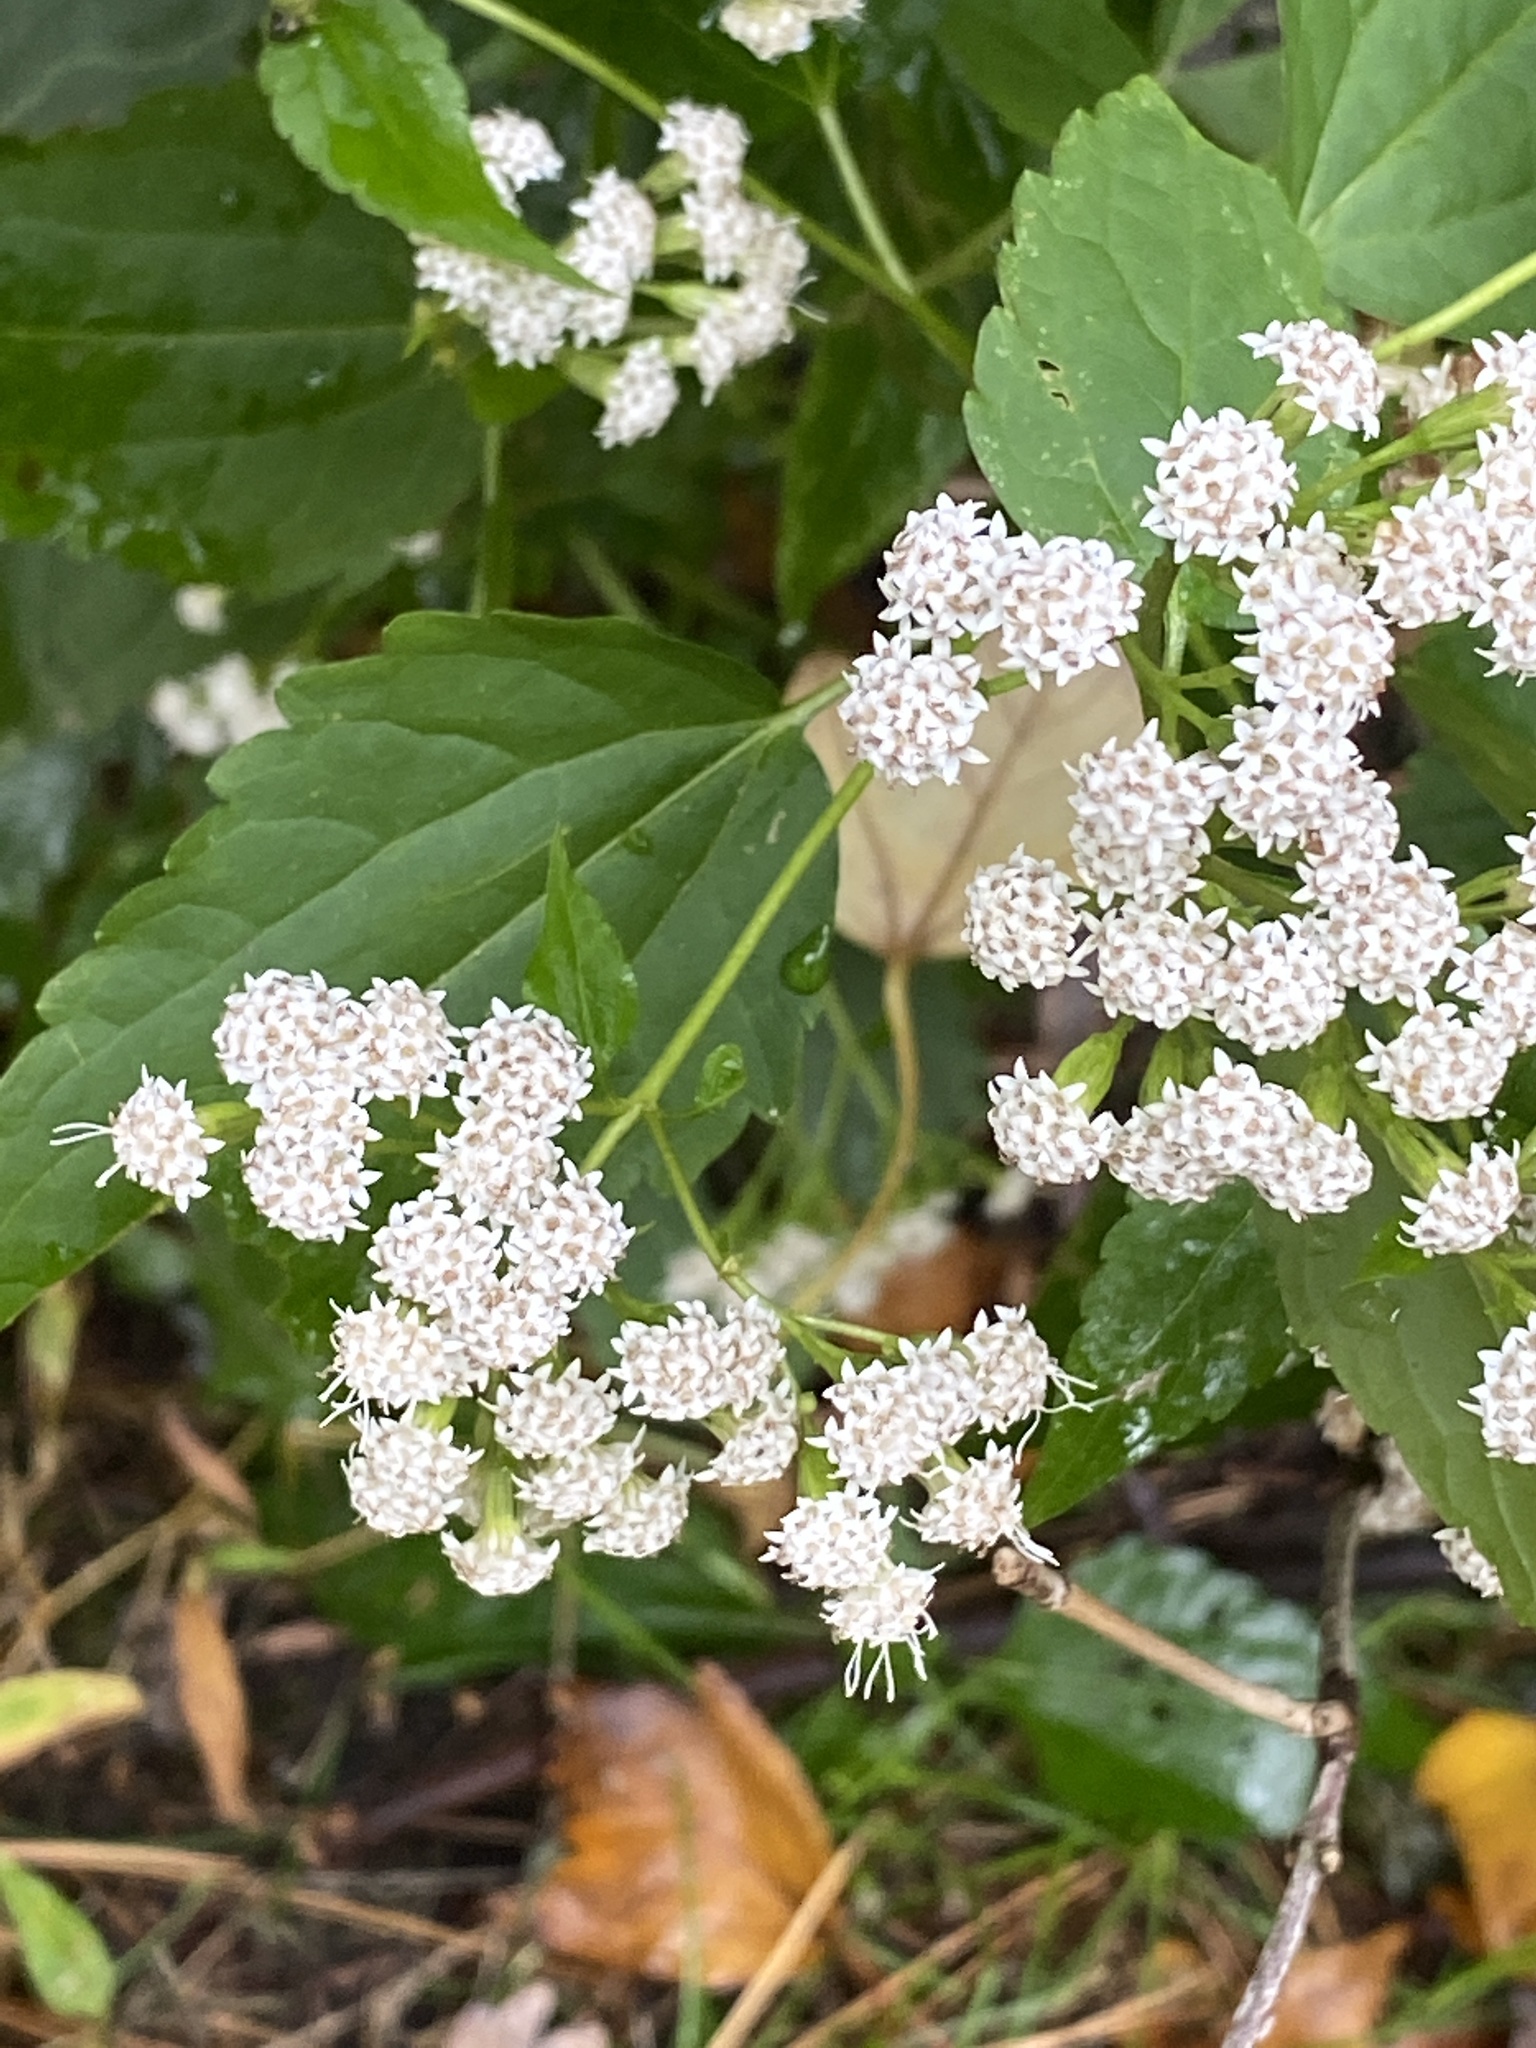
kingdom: Plantae
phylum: Tracheophyta
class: Magnoliopsida
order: Asterales
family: Asteraceae
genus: Ageratina
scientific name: Ageratina altissima
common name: White snakeroot
